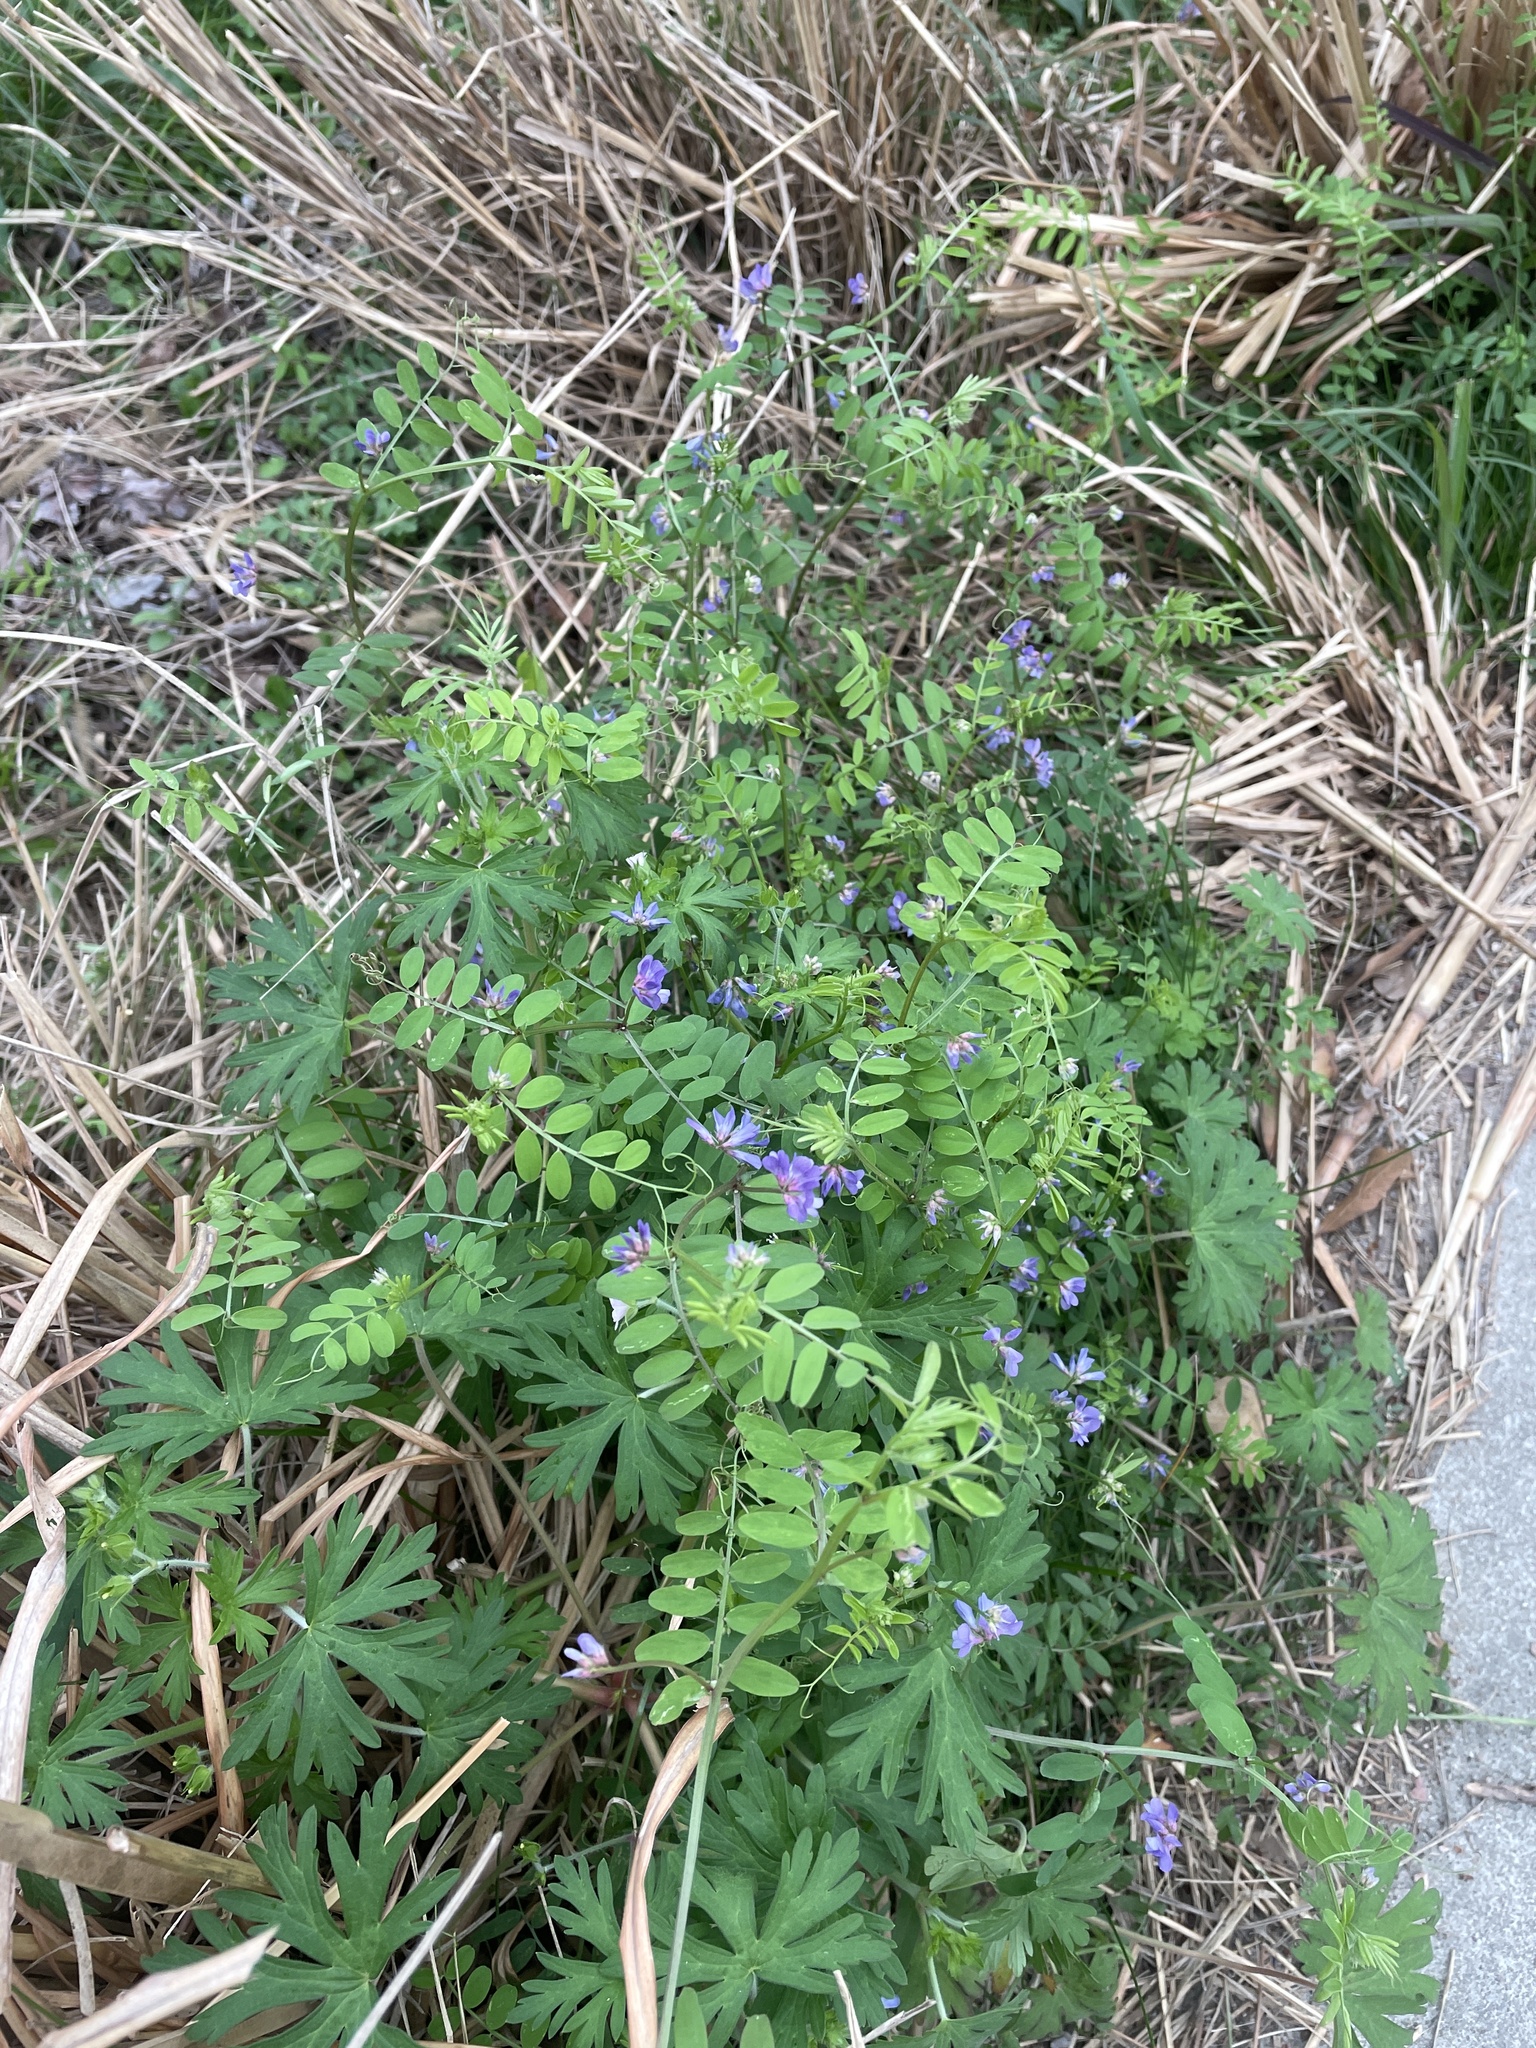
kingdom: Plantae
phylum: Tracheophyta
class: Magnoliopsida
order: Fabales
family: Fabaceae
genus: Vicia
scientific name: Vicia ludoviciana
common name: Louisiana vetch
